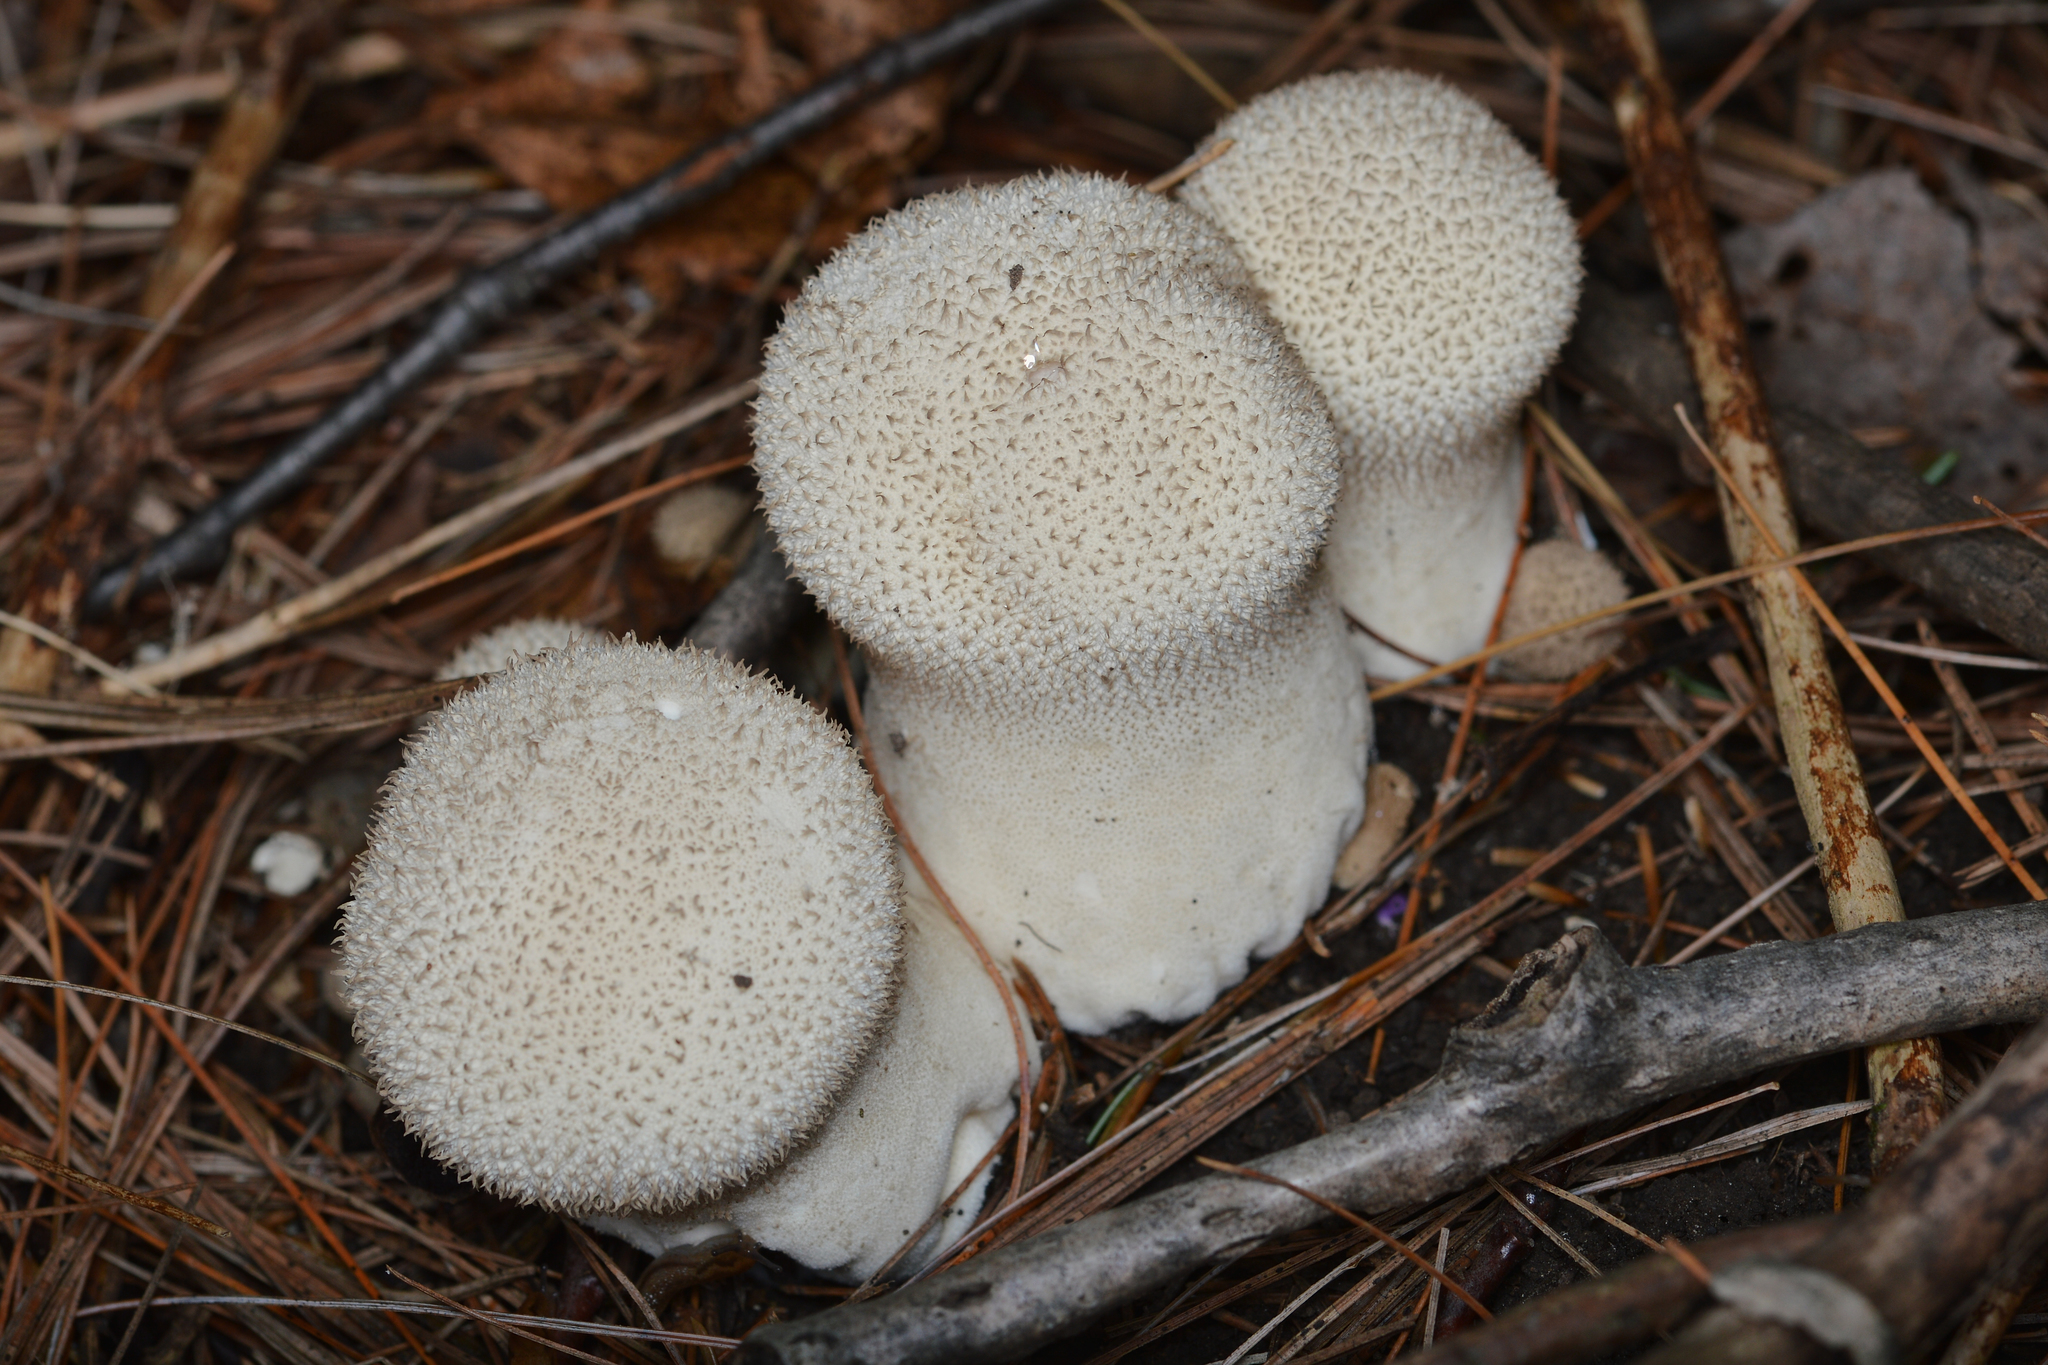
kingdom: Fungi
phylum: Basidiomycota
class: Agaricomycetes
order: Agaricales
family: Lycoperdaceae
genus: Lycoperdon
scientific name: Lycoperdon perlatum
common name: Common puffball
